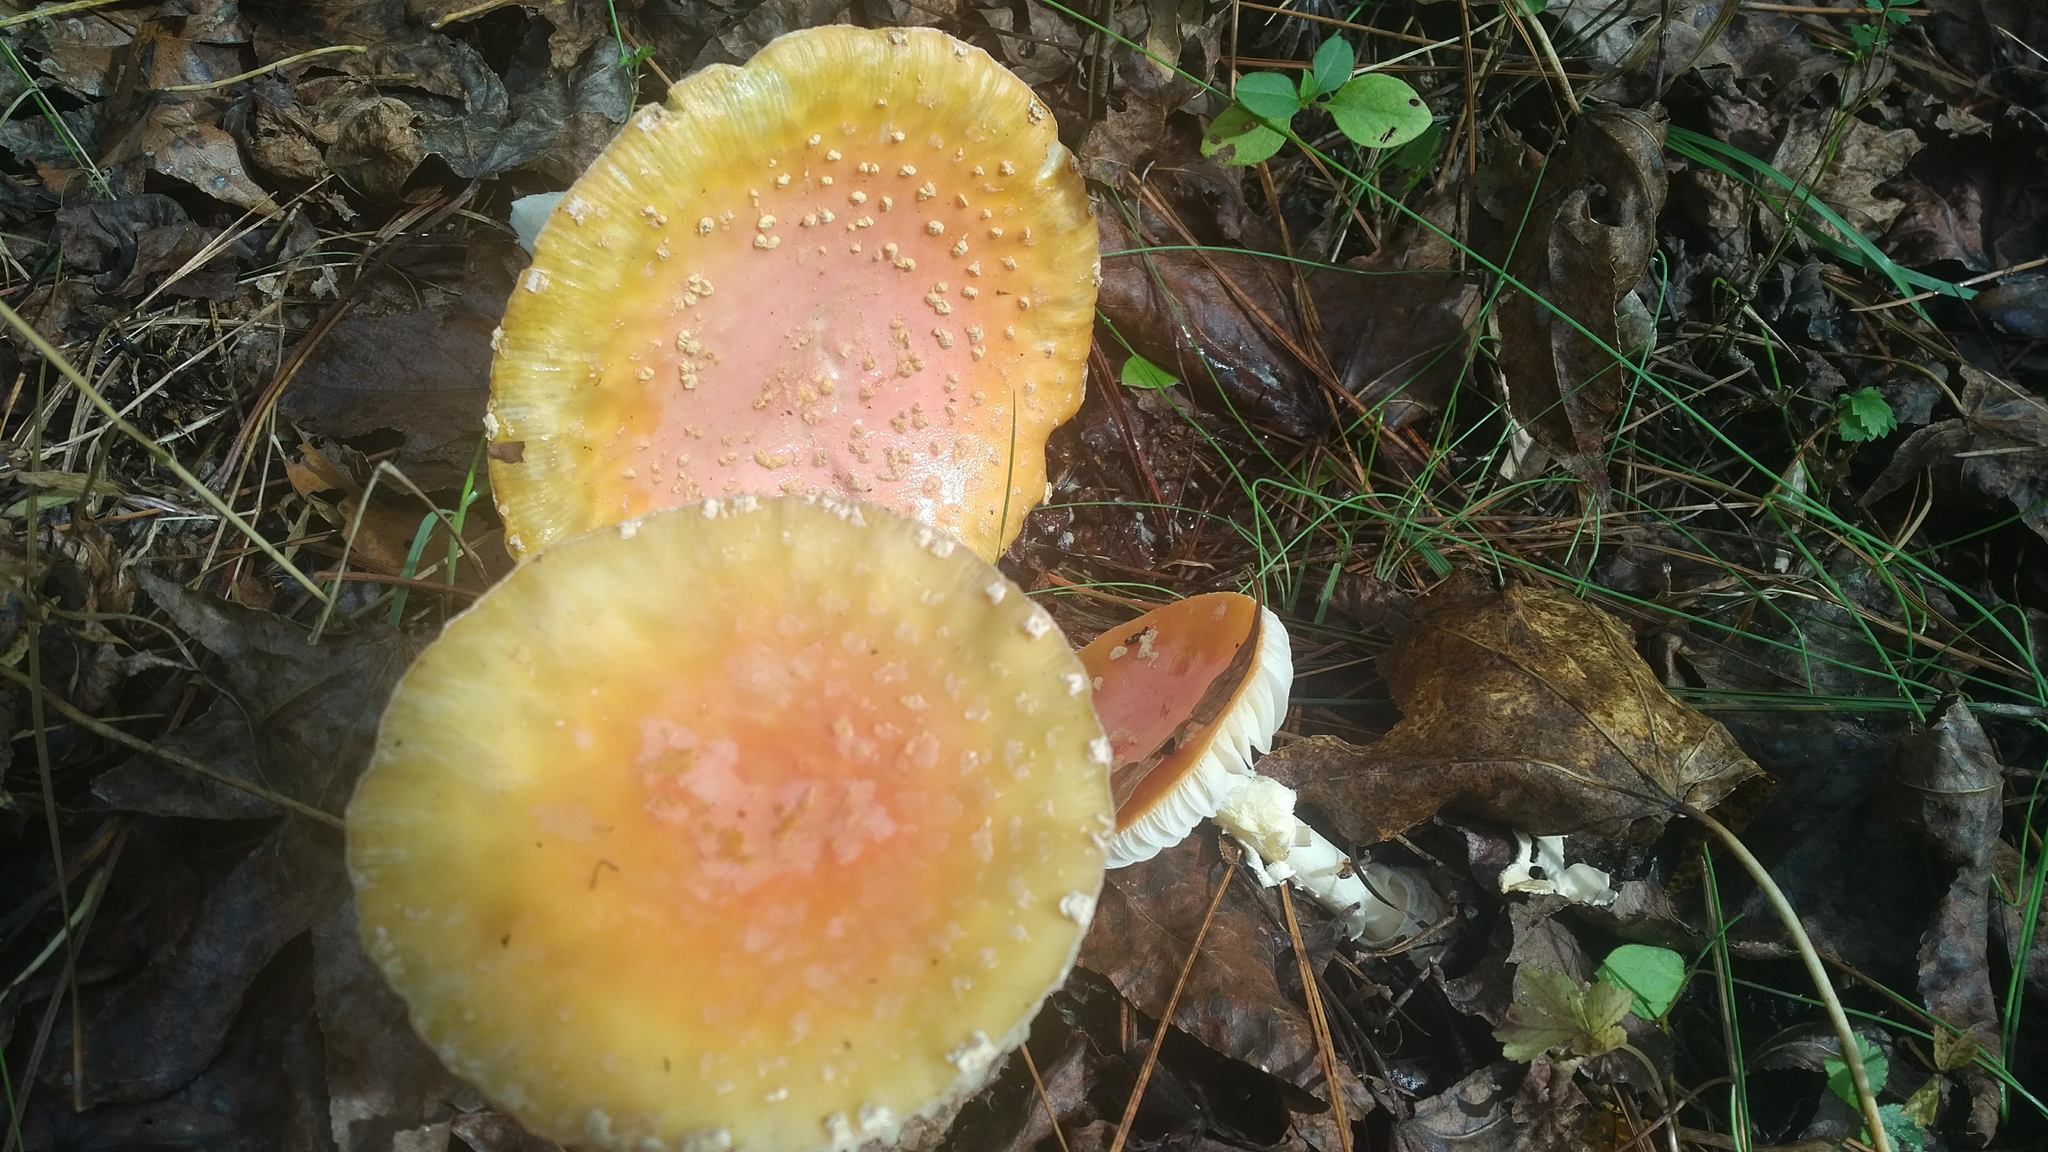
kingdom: Fungi
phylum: Basidiomycota
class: Agaricomycetes
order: Agaricales
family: Amanitaceae
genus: Amanita
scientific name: Amanita persicina
